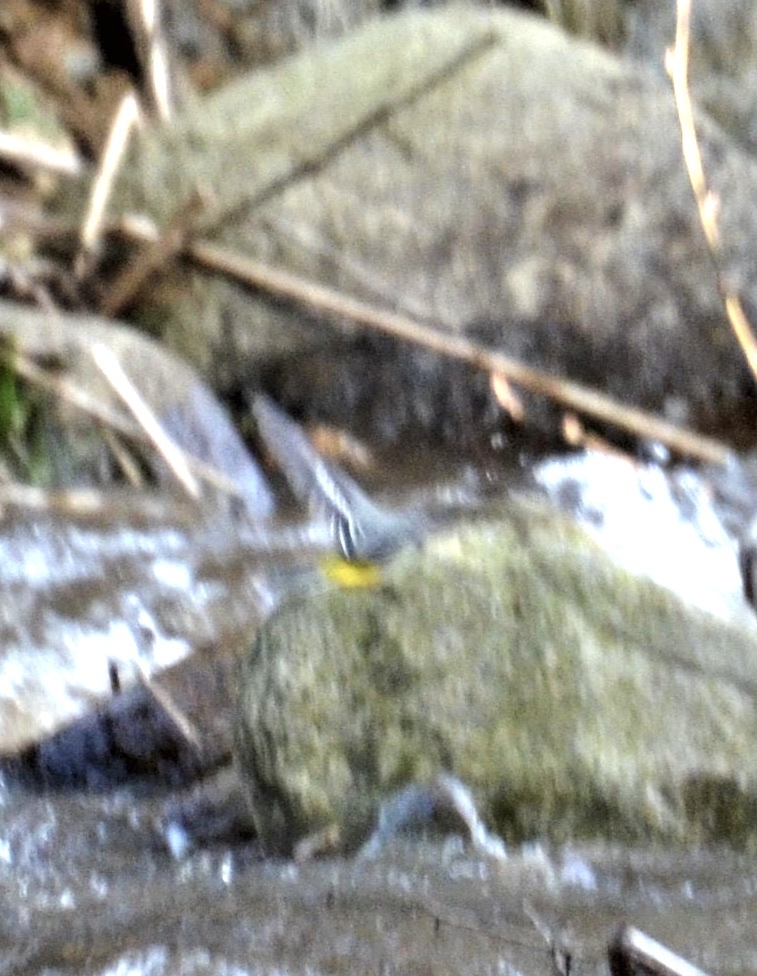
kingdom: Animalia
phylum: Chordata
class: Aves
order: Passeriformes
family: Motacillidae
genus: Motacilla
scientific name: Motacilla cinerea
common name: Grey wagtail
